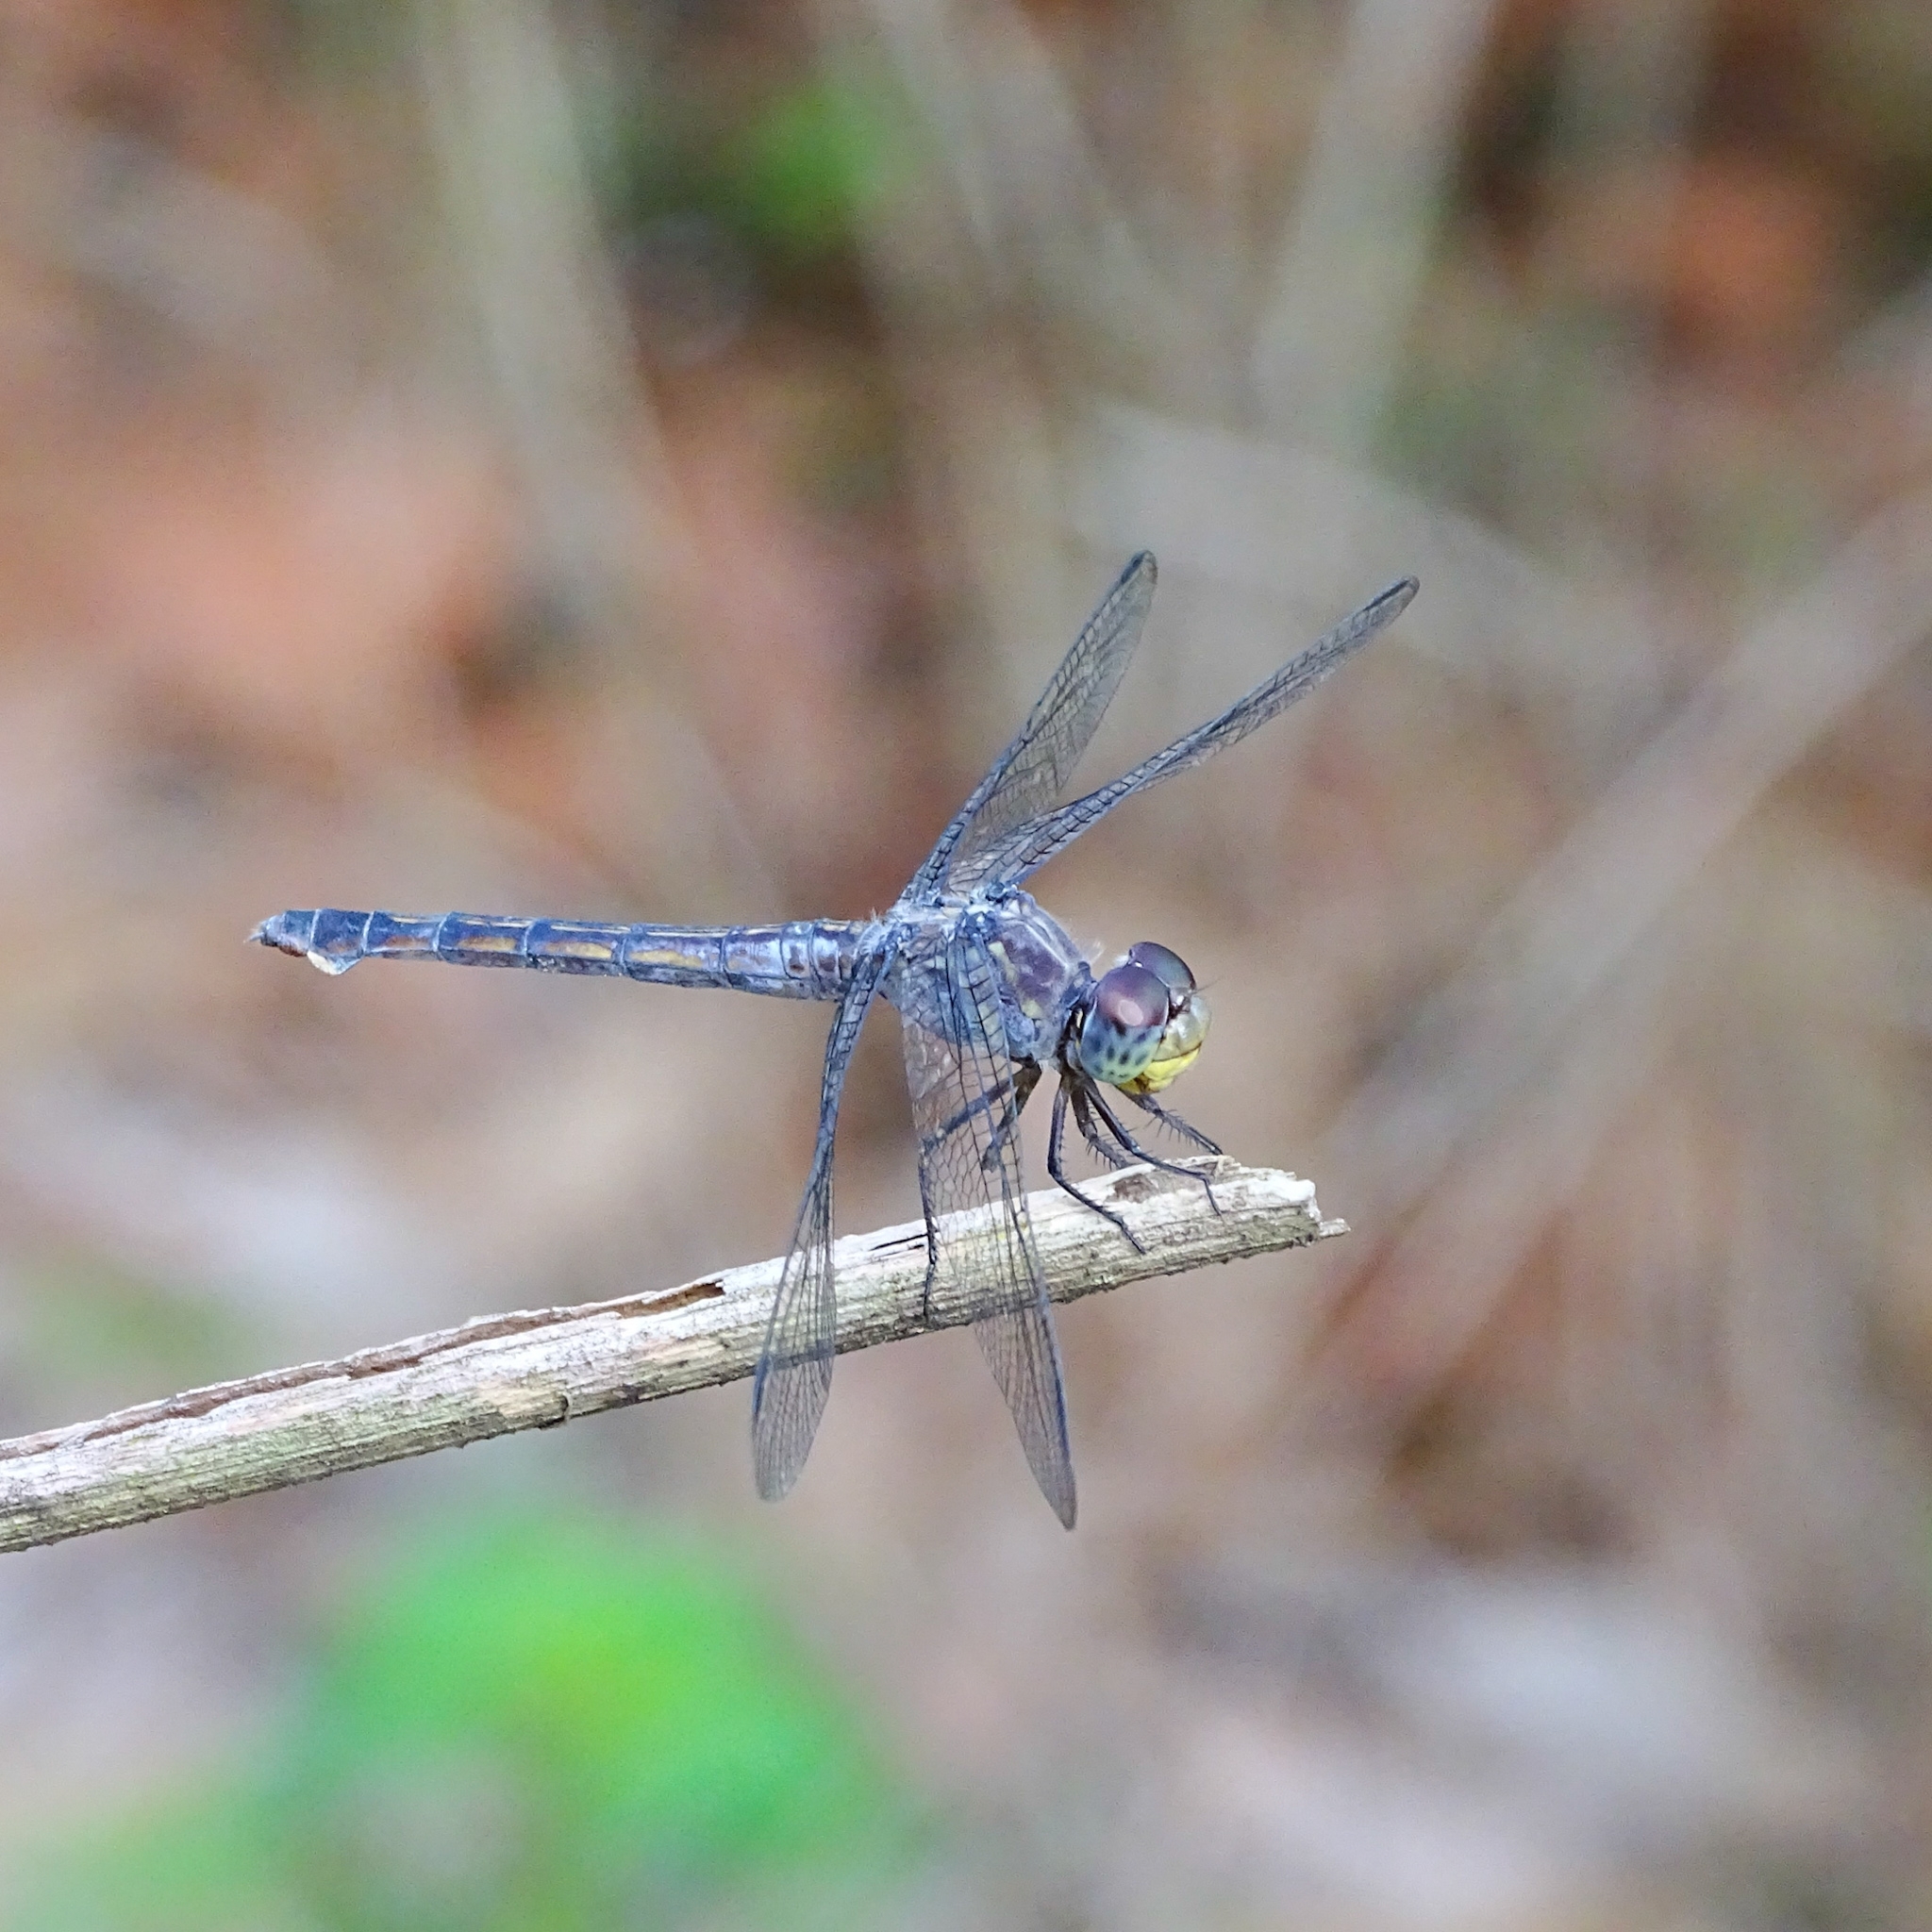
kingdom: Animalia
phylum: Arthropoda
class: Insecta
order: Odonata
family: Libellulidae
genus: Potamarcha
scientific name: Potamarcha congener
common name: Blue chaser
